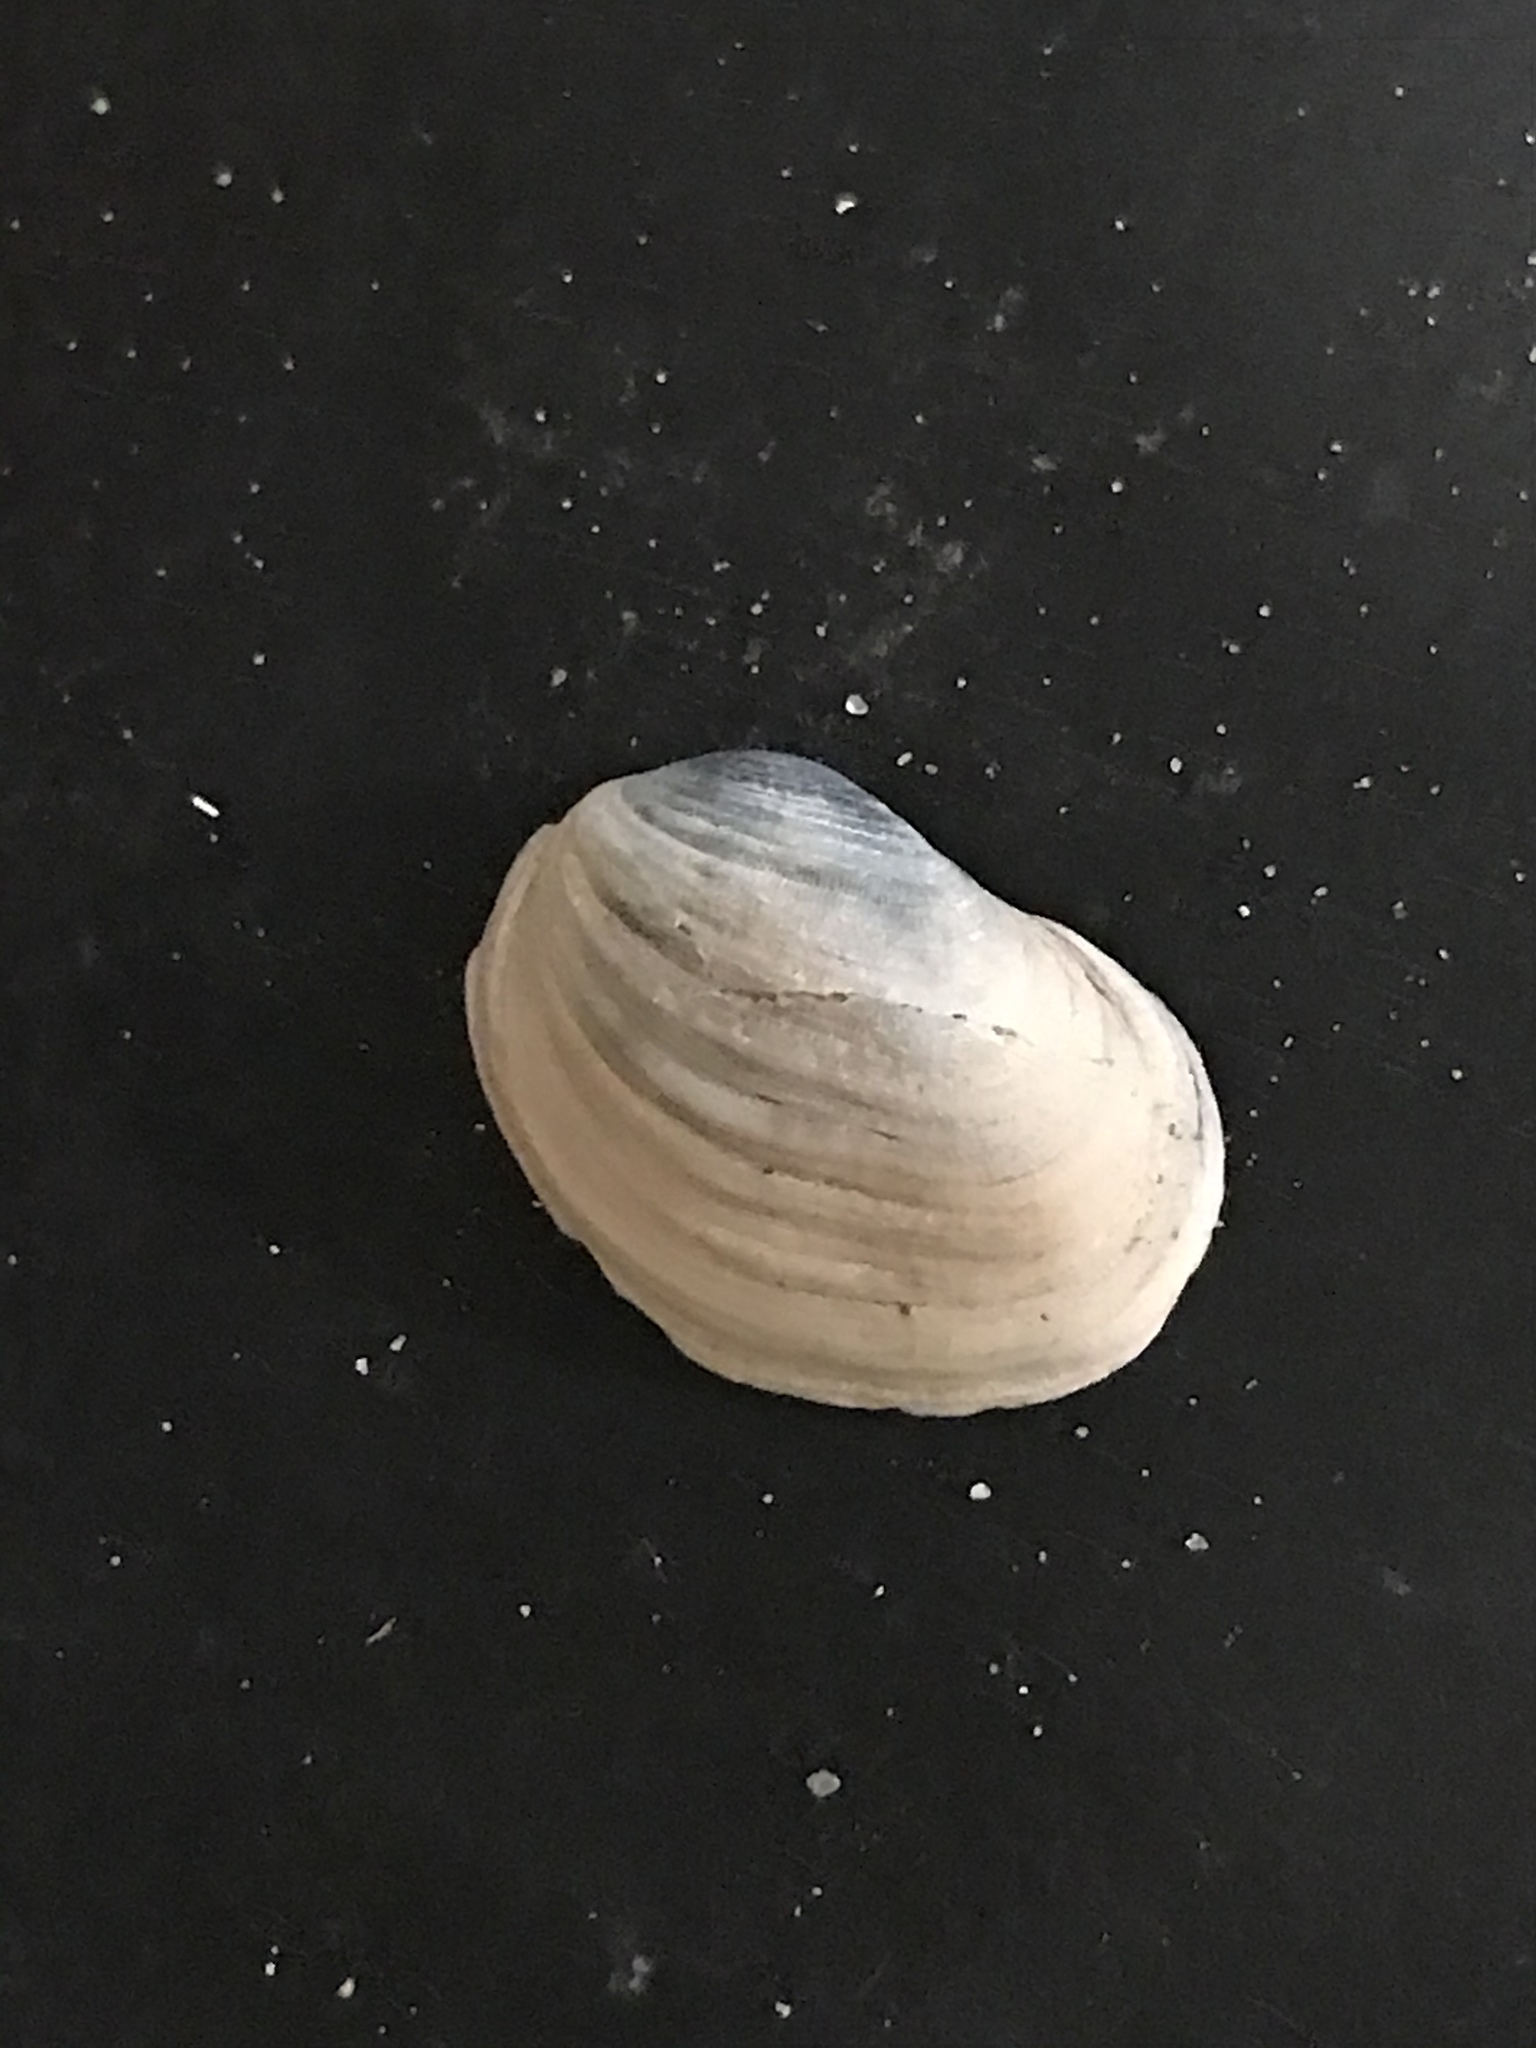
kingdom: Animalia
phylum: Mollusca
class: Bivalvia
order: Venerida
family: Veneridae
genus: Petricola
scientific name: Petricola carditoides
